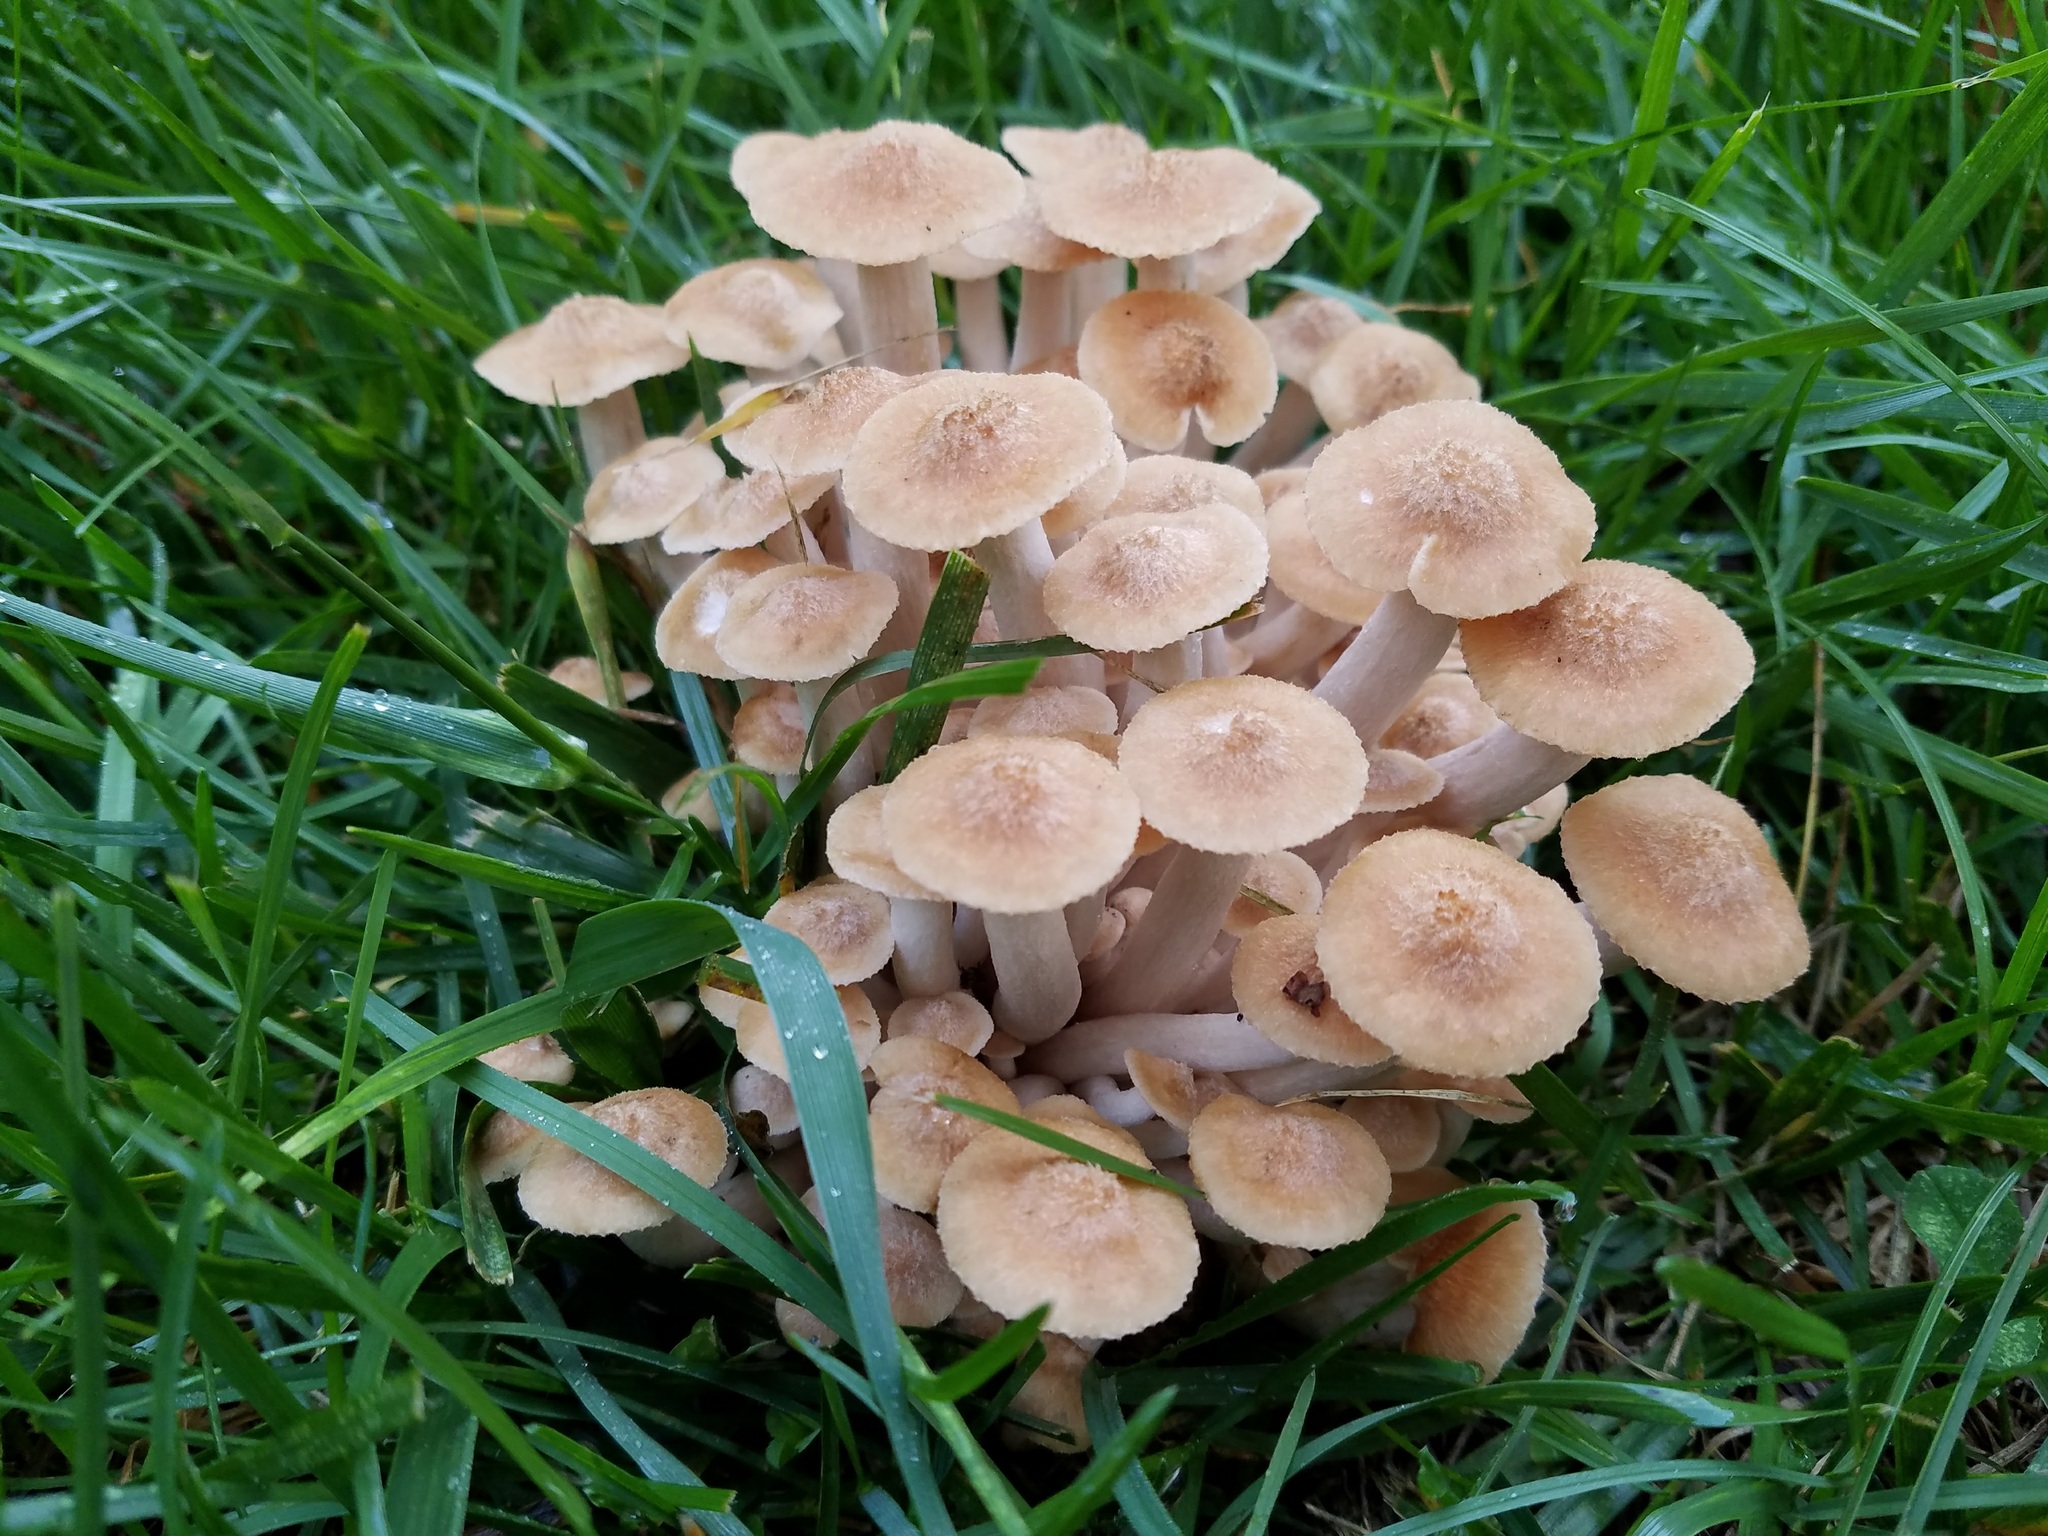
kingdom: Fungi
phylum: Basidiomycota
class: Agaricomycetes
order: Agaricales
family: Physalacriaceae
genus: Desarmillaria
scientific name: Desarmillaria caespitosa
